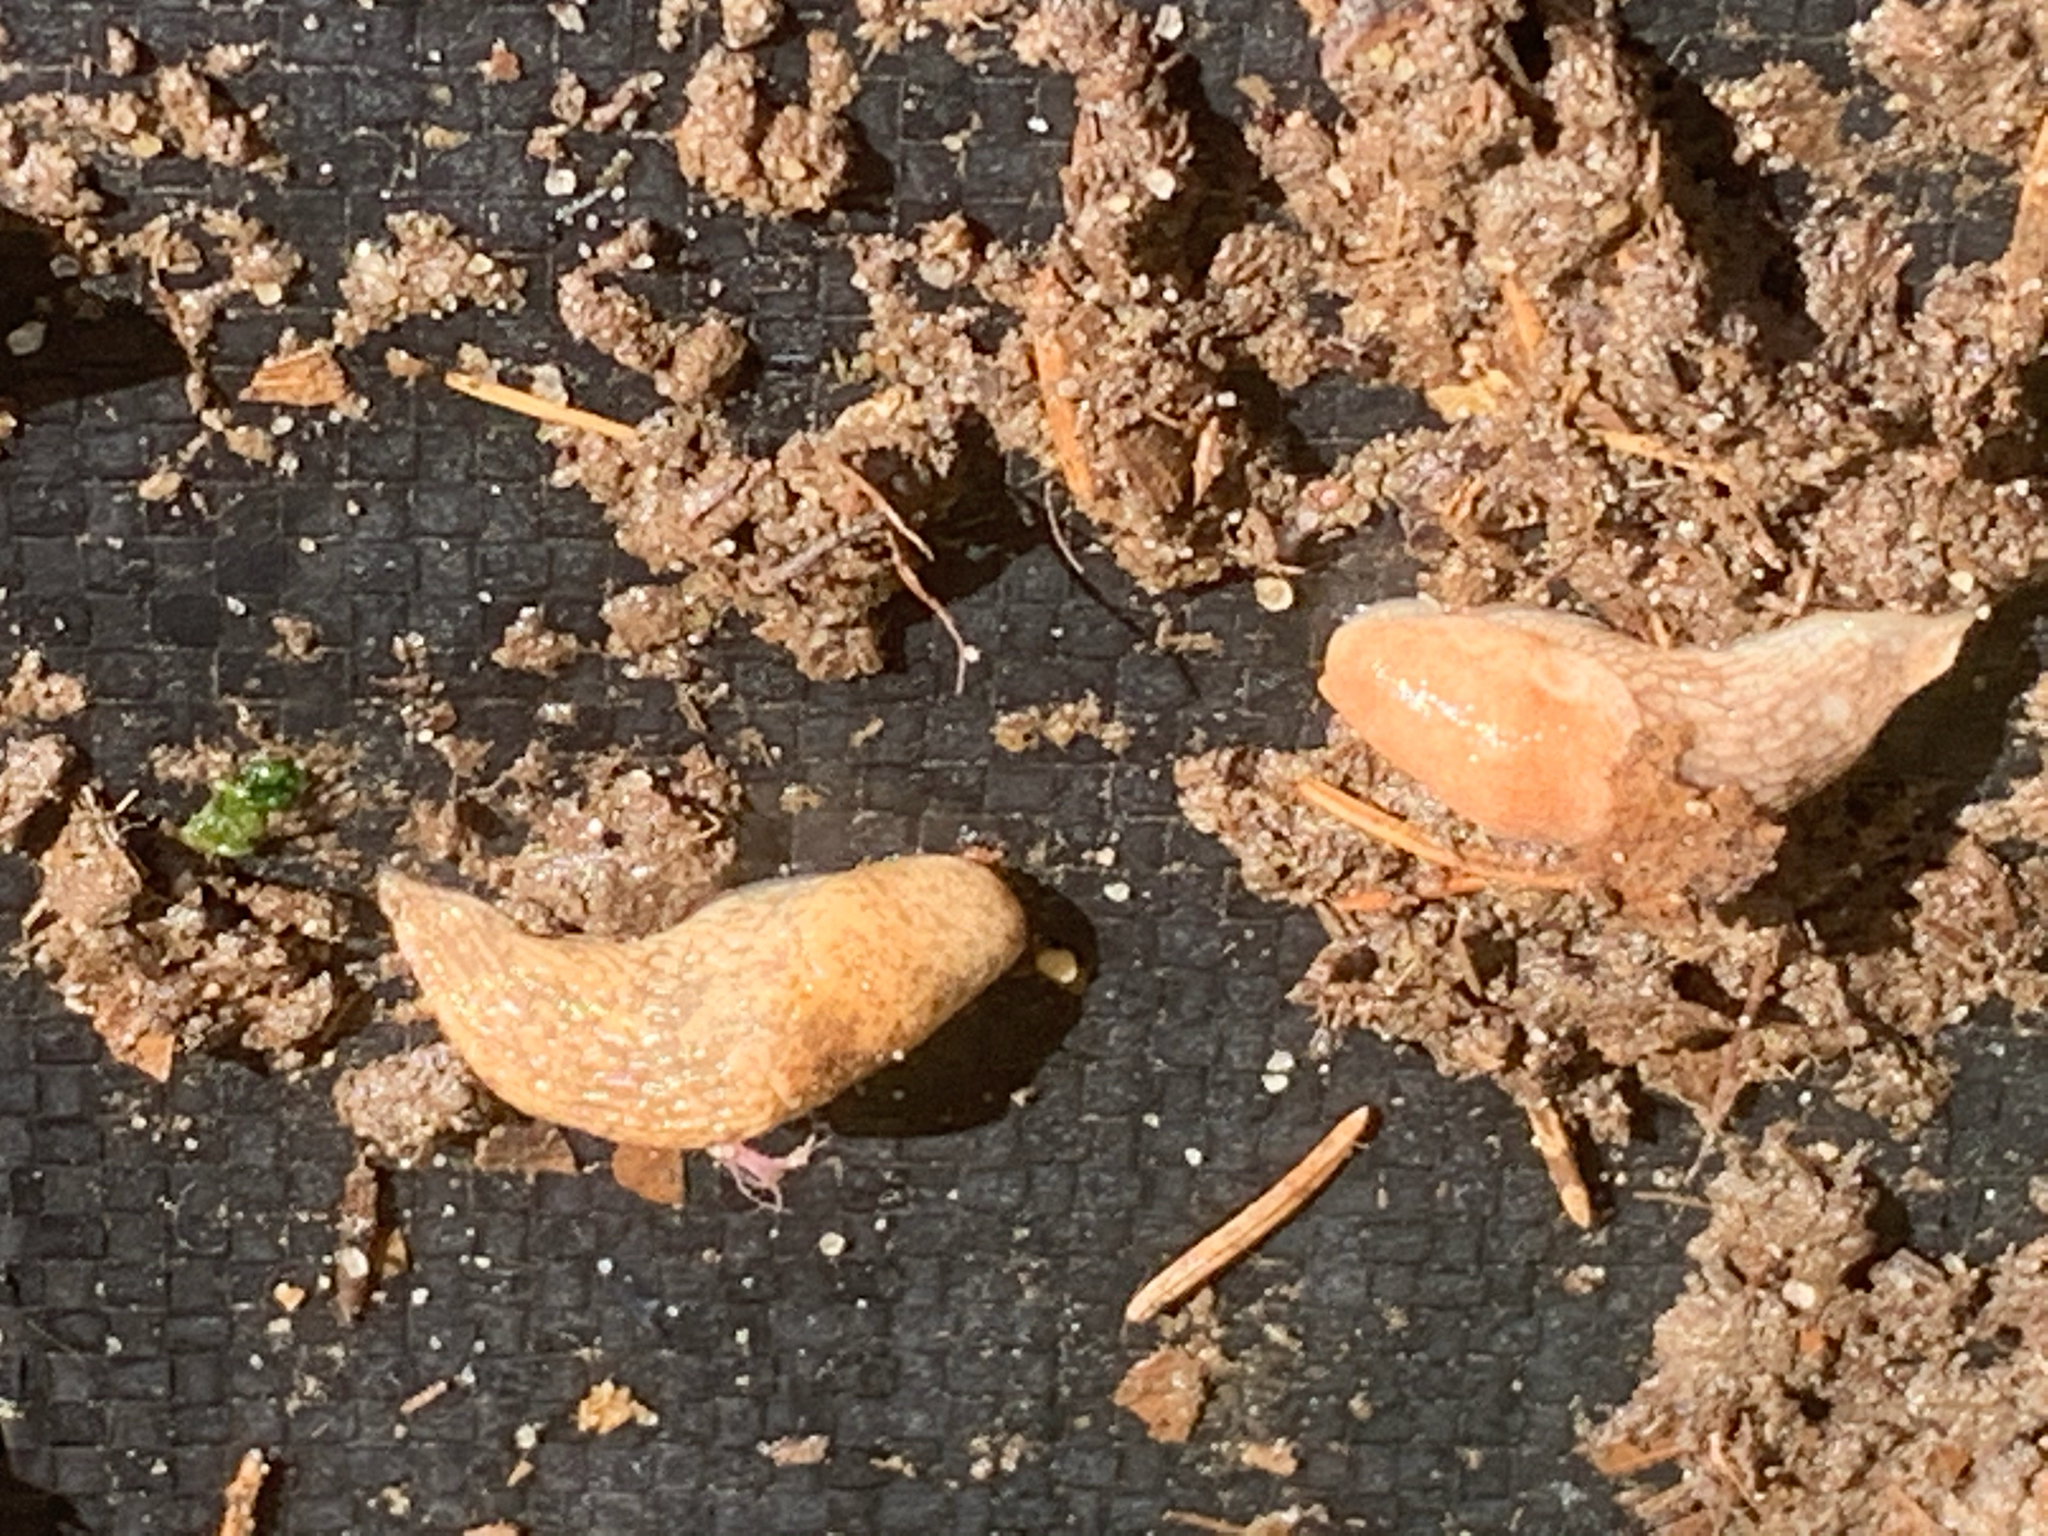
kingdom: Animalia
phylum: Mollusca
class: Gastropoda
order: Stylommatophora
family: Agriolimacidae
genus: Deroceras
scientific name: Deroceras reticulatum
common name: Gray field slug
